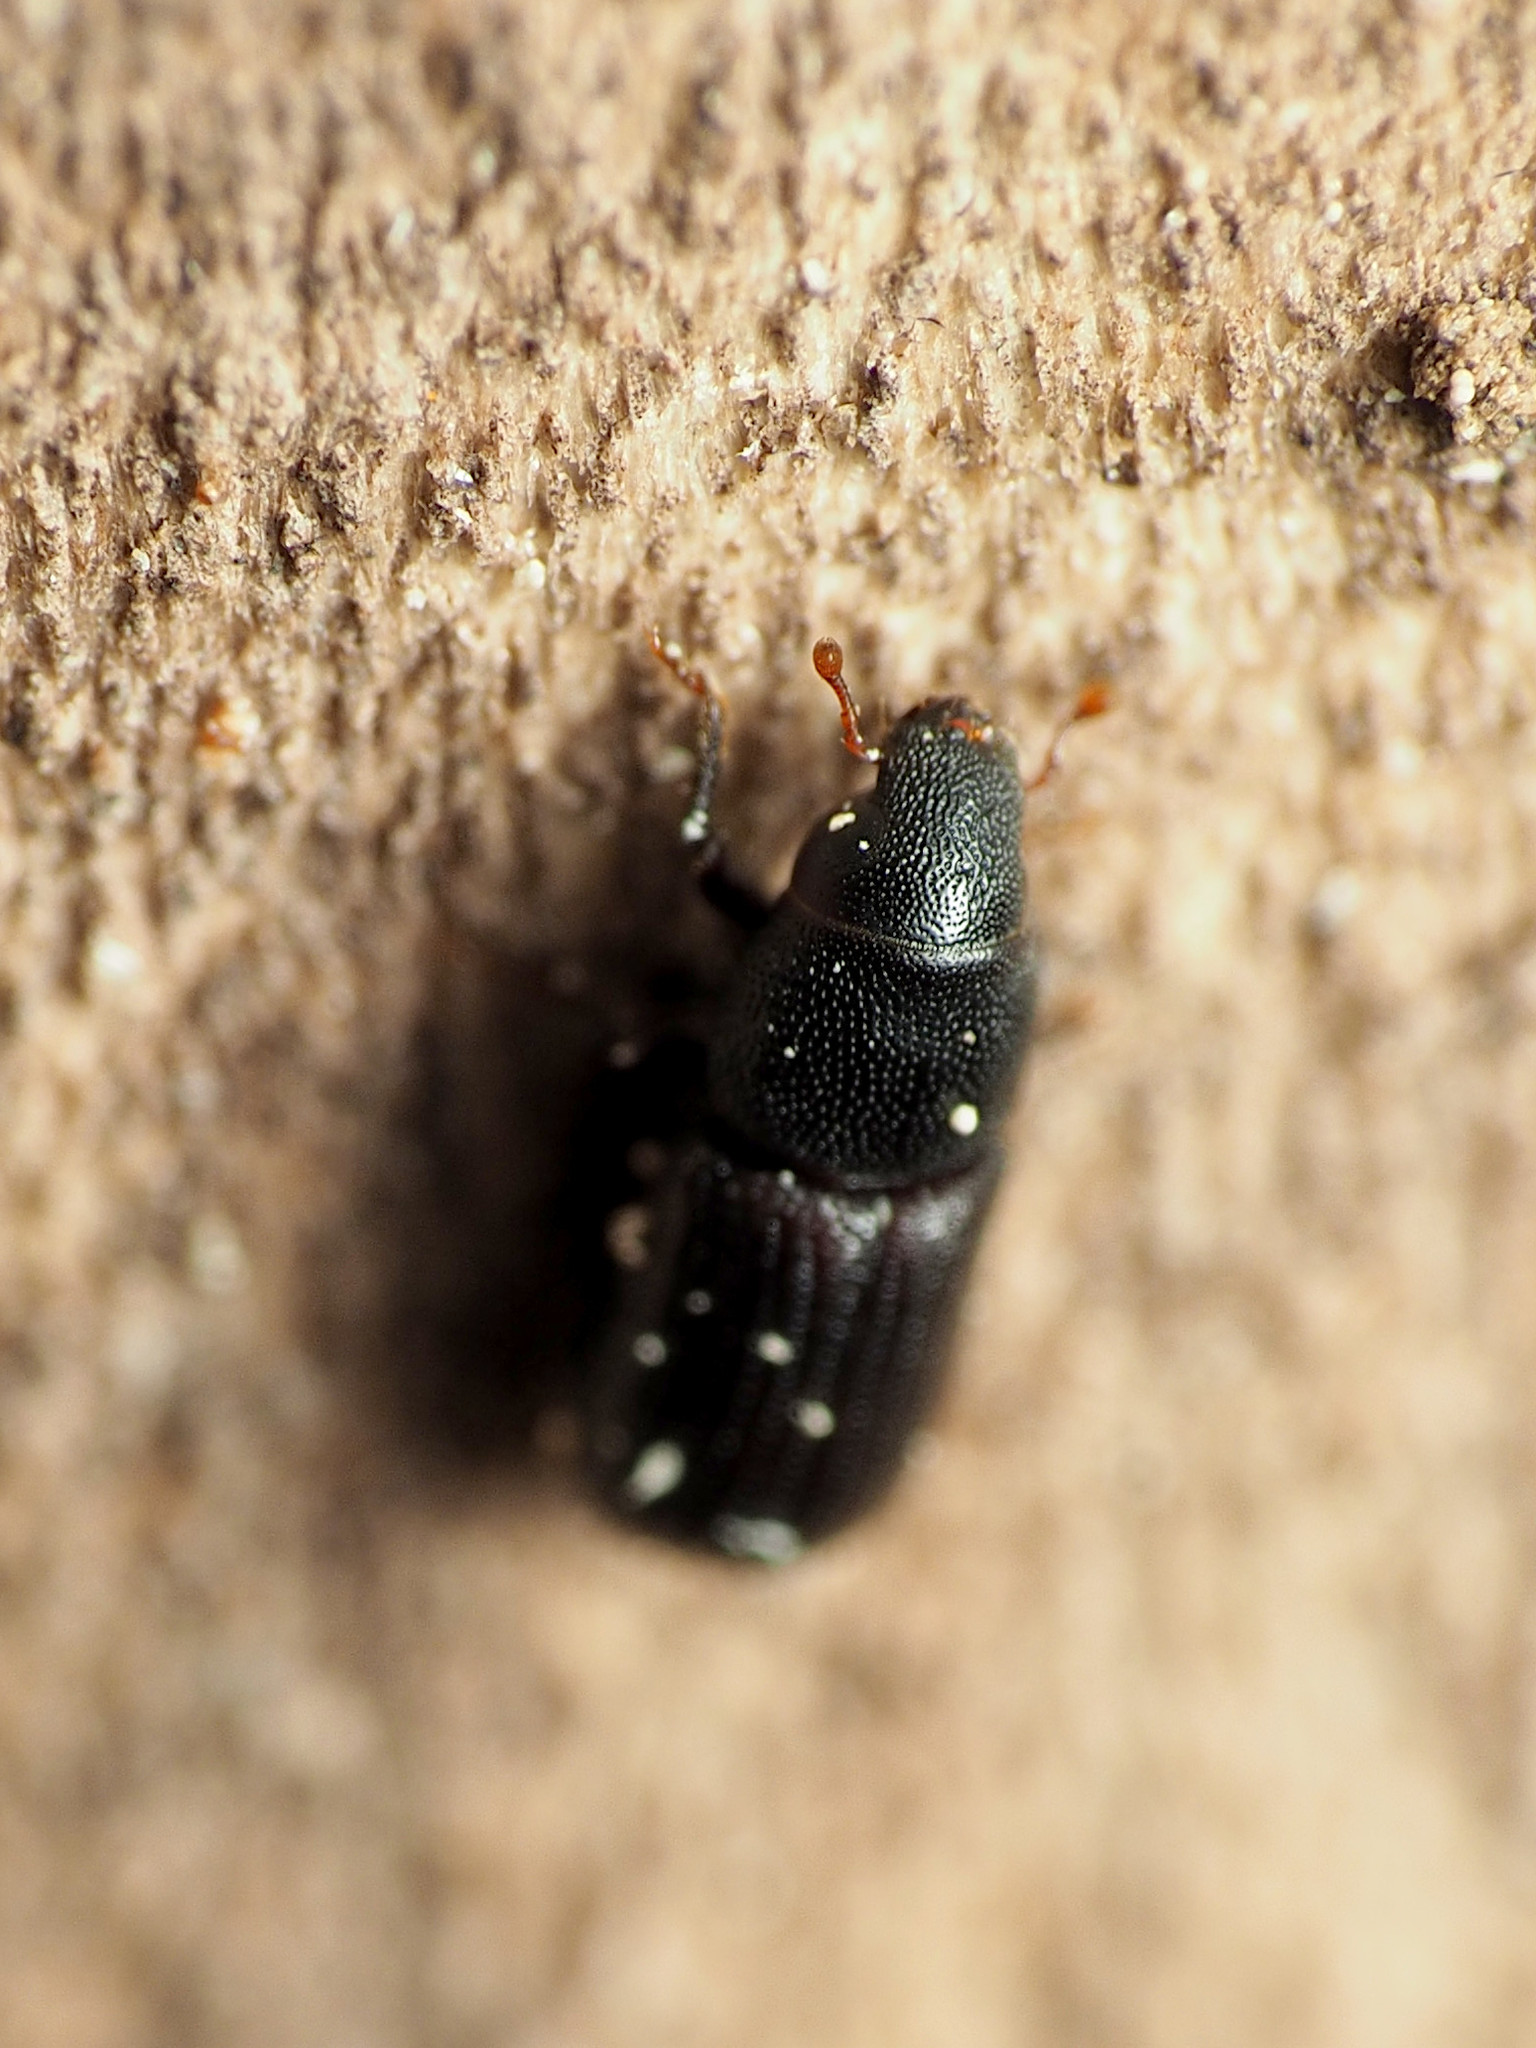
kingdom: Animalia
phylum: Arthropoda
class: Insecta
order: Coleoptera
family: Curculionidae
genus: Stenoscelis
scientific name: Stenoscelis brevis
